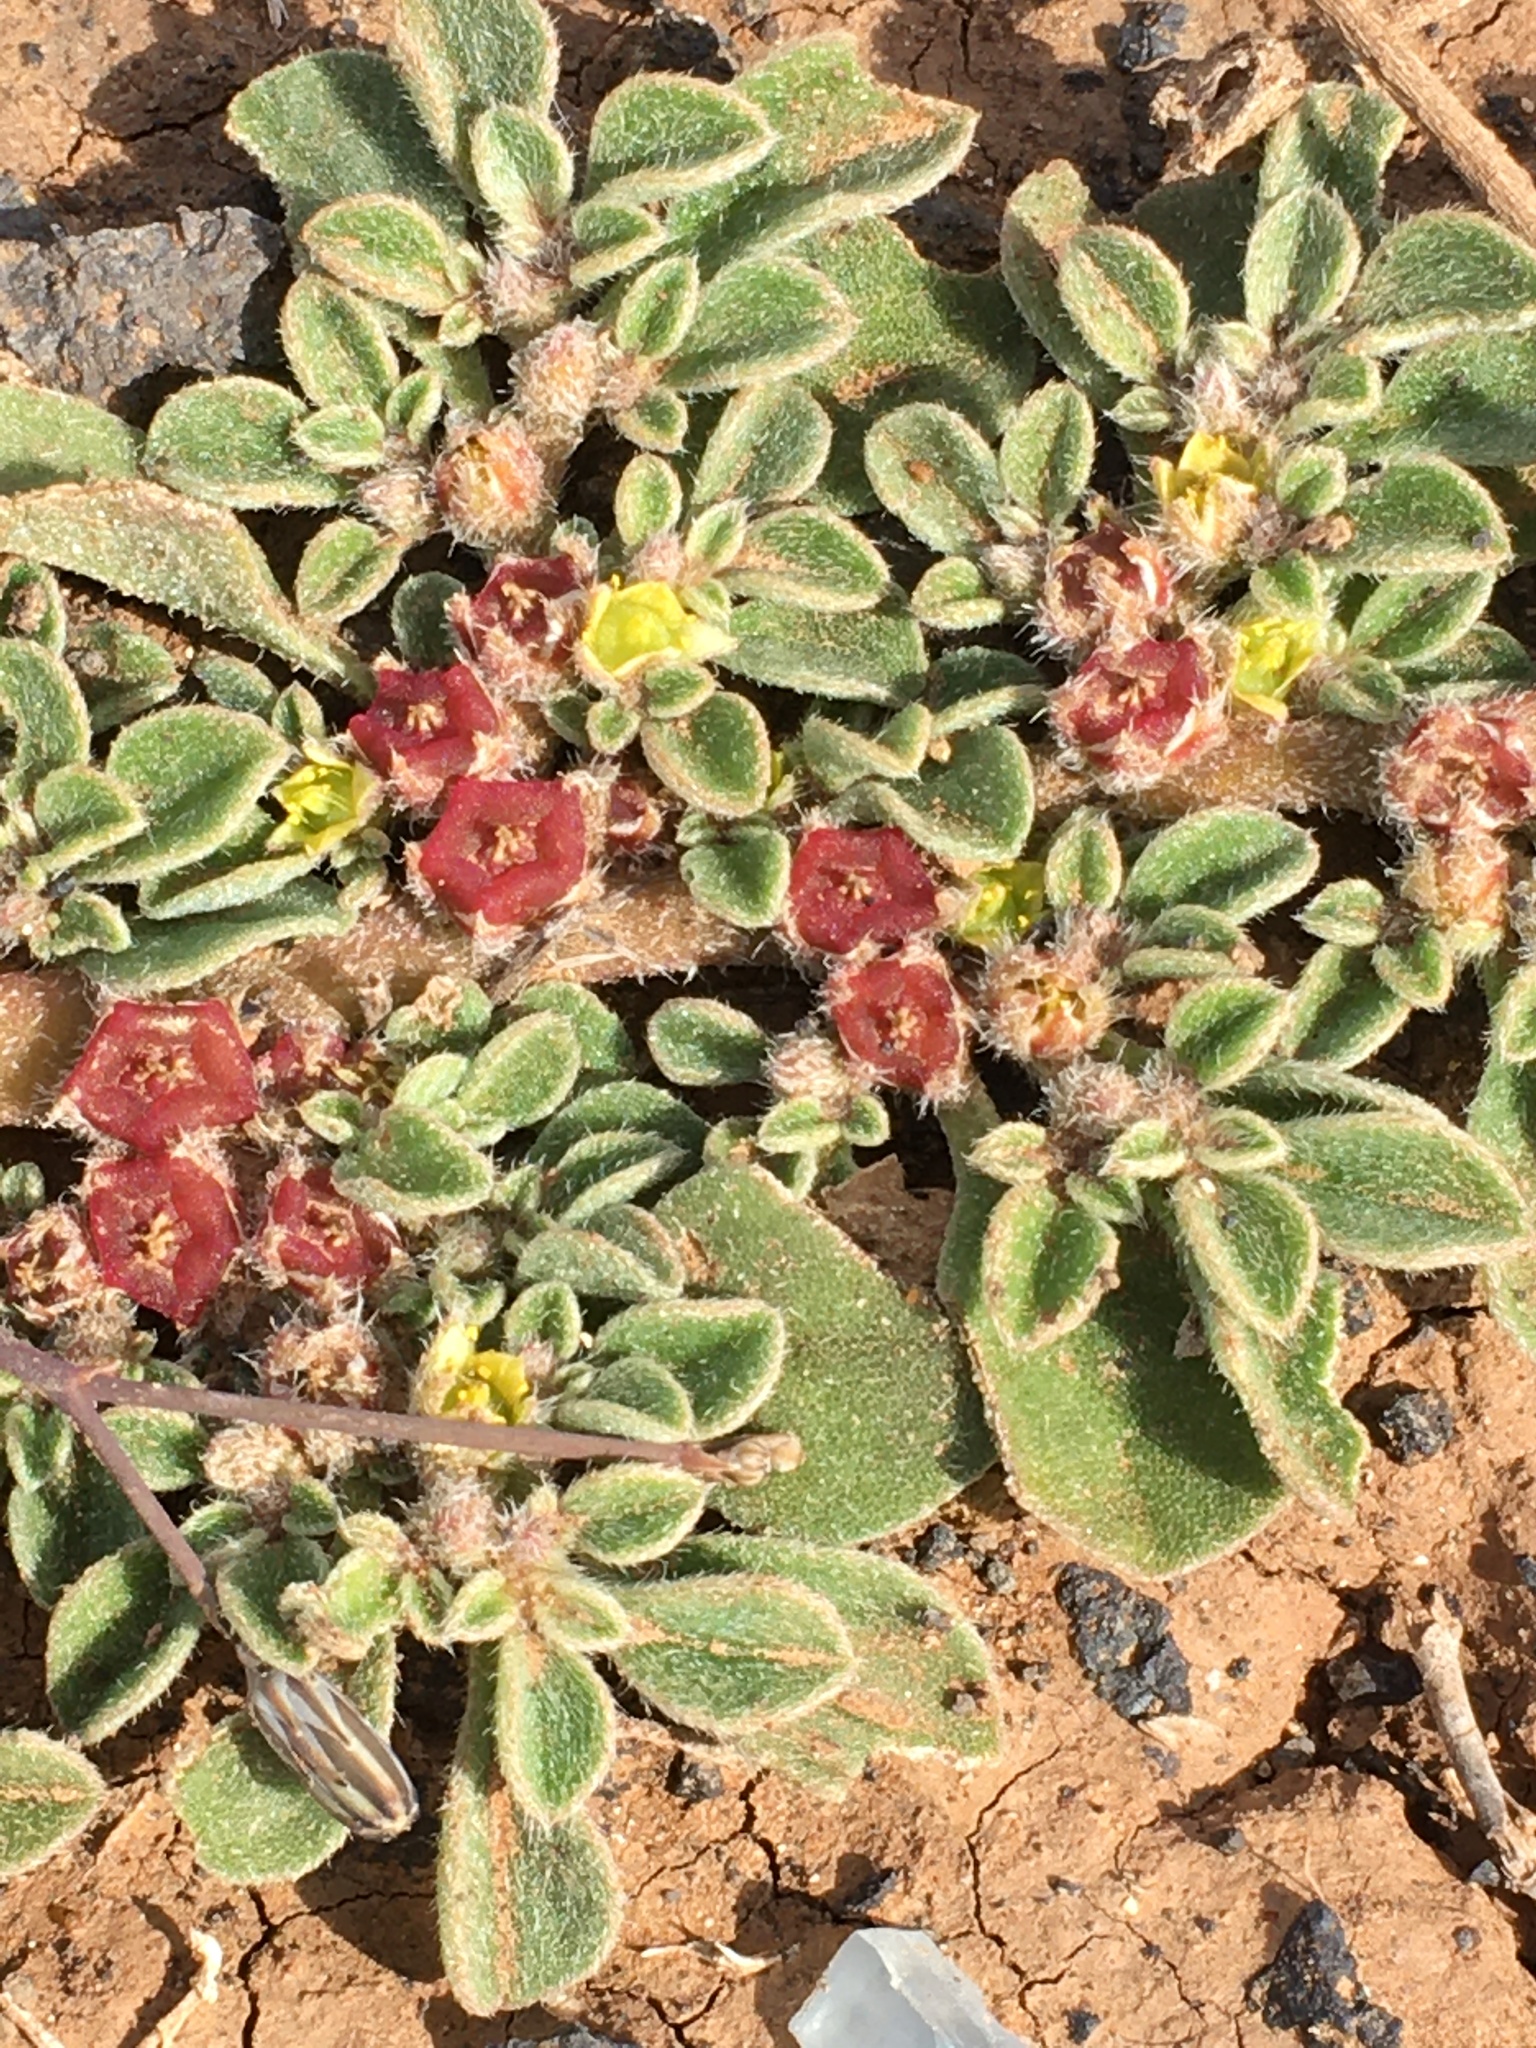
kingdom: Plantae
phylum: Tracheophyta
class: Magnoliopsida
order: Caryophyllales
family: Aizoaceae
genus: Aizoon
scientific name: Aizoon canariense
